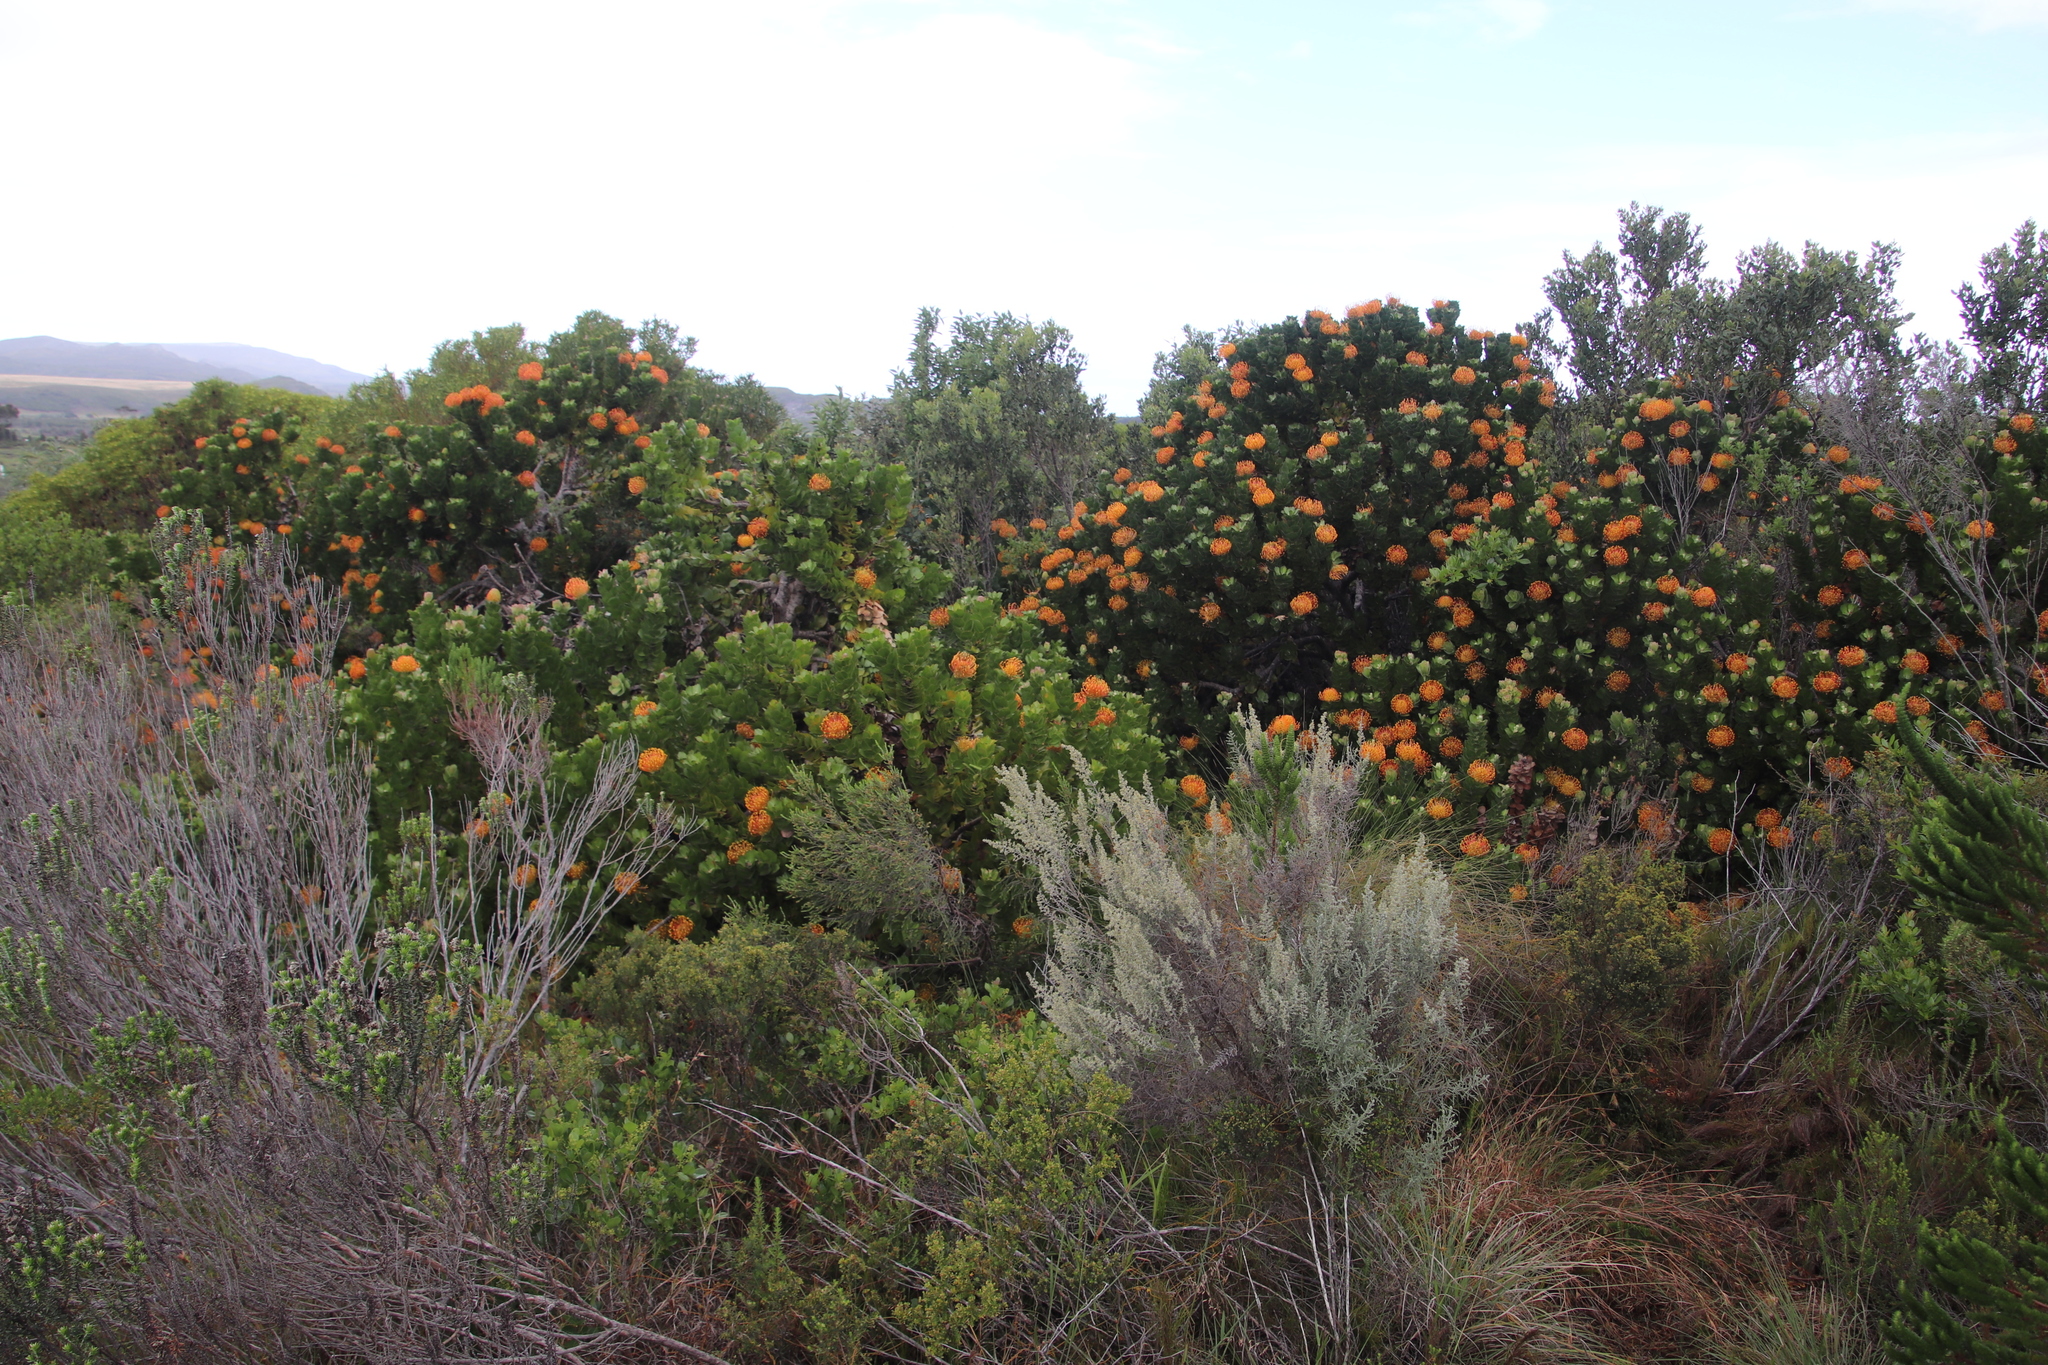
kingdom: Plantae
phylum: Tracheophyta
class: Magnoliopsida
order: Proteales
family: Proteaceae
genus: Leucospermum
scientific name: Leucospermum patersonii
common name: False tree pincushion
